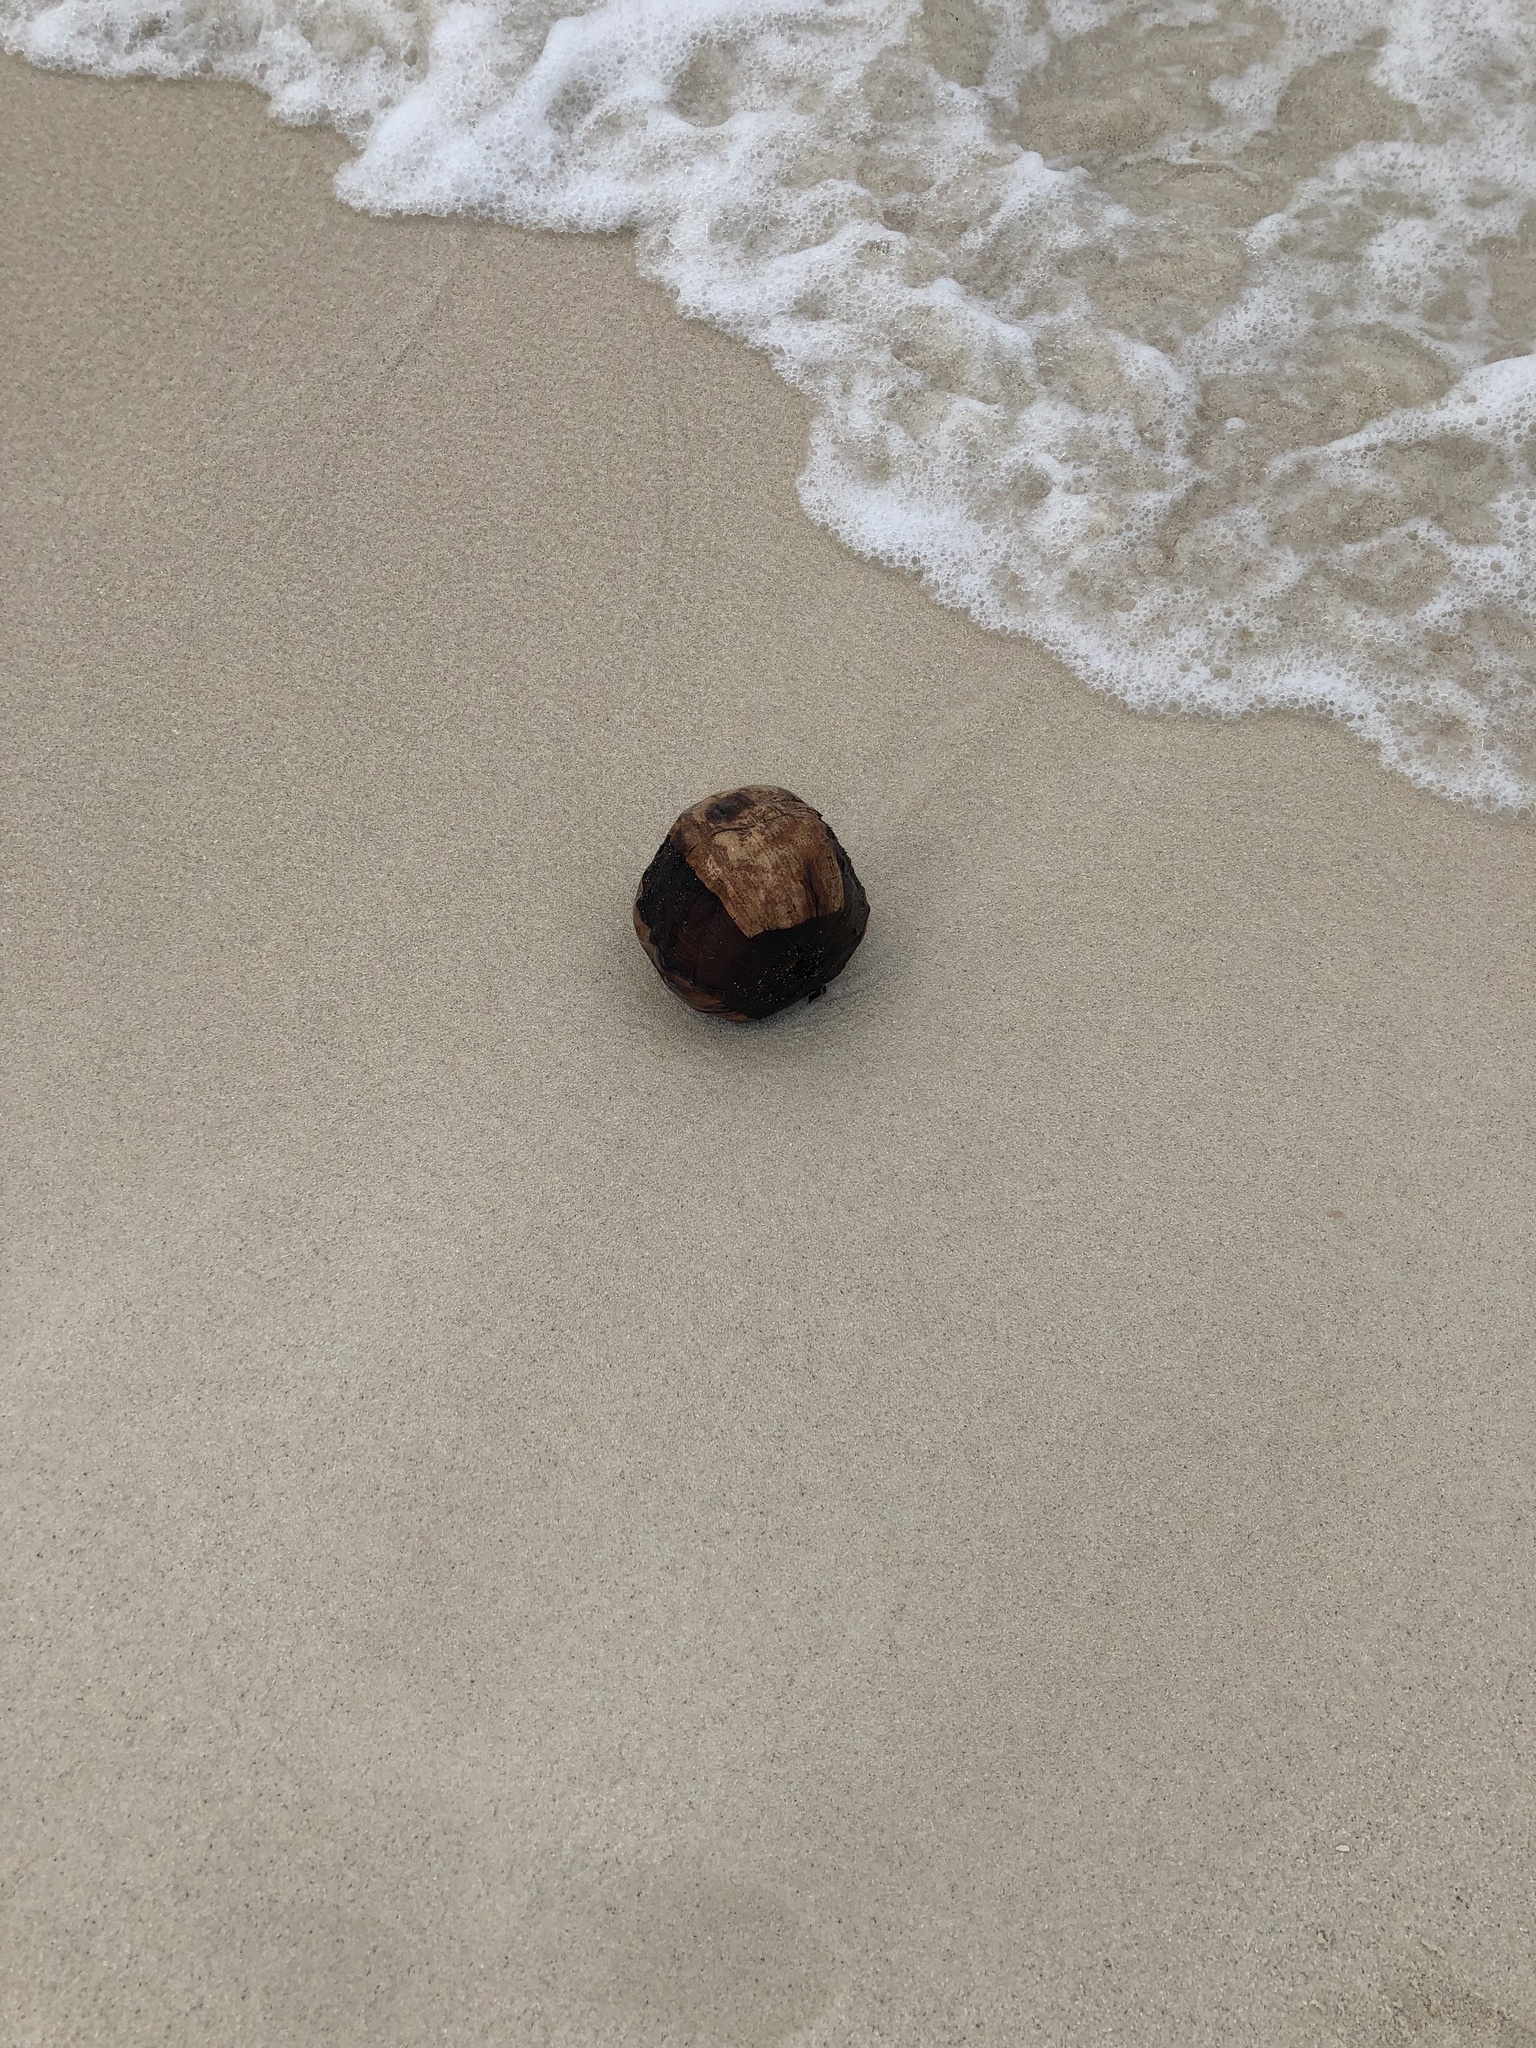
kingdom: Plantae
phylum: Tracheophyta
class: Liliopsida
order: Arecales
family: Arecaceae
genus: Cocos
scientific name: Cocos nucifera
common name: Coconut palm
